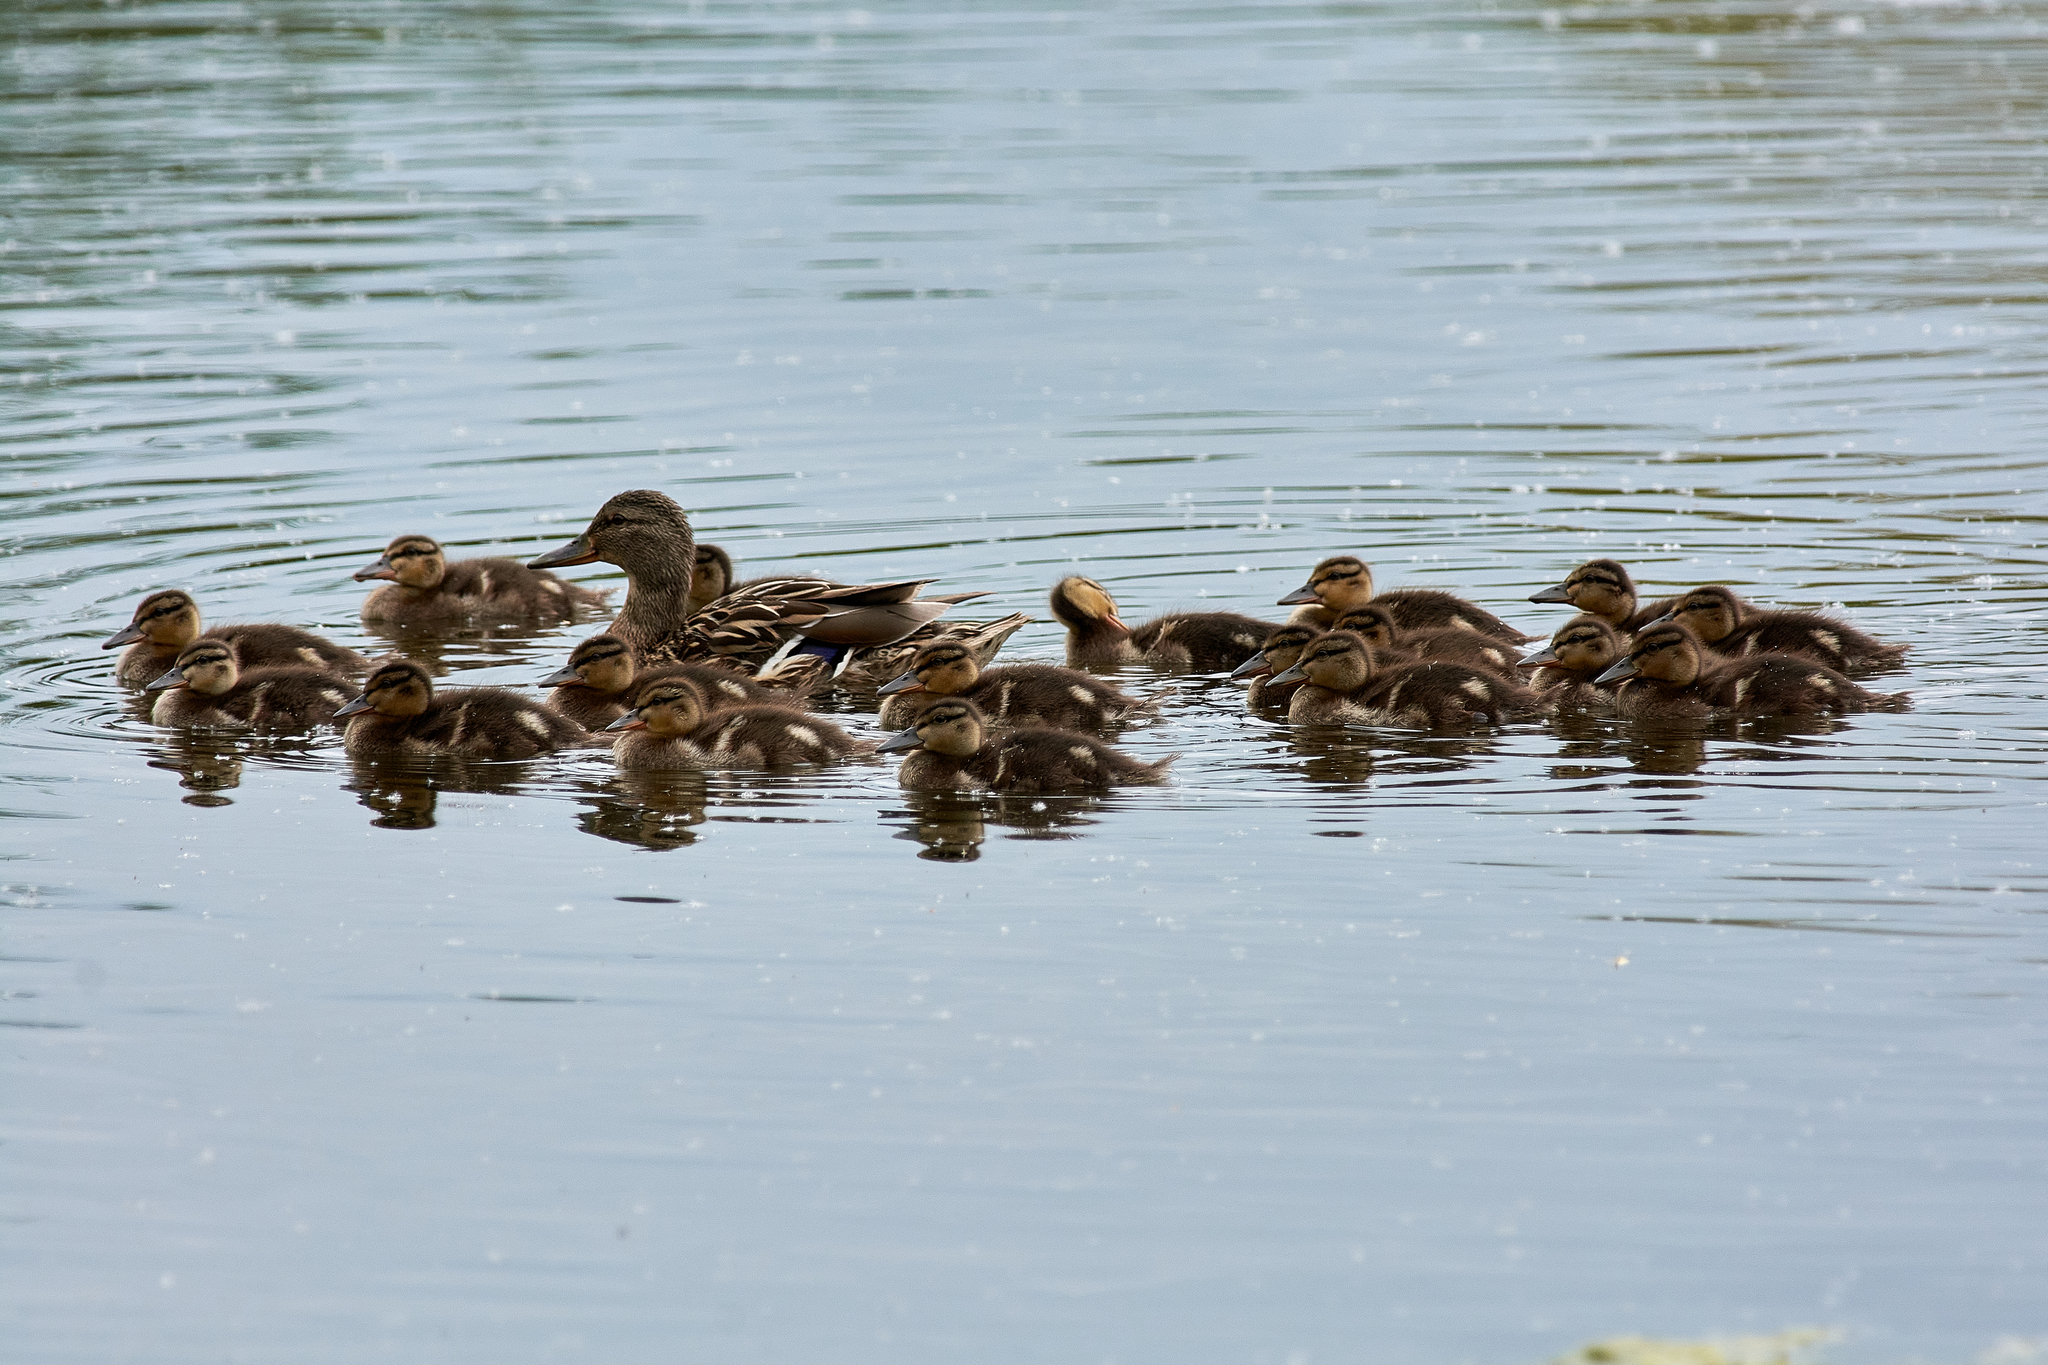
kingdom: Animalia
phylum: Chordata
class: Aves
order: Anseriformes
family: Anatidae
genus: Anas
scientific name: Anas platyrhynchos
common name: Mallard
